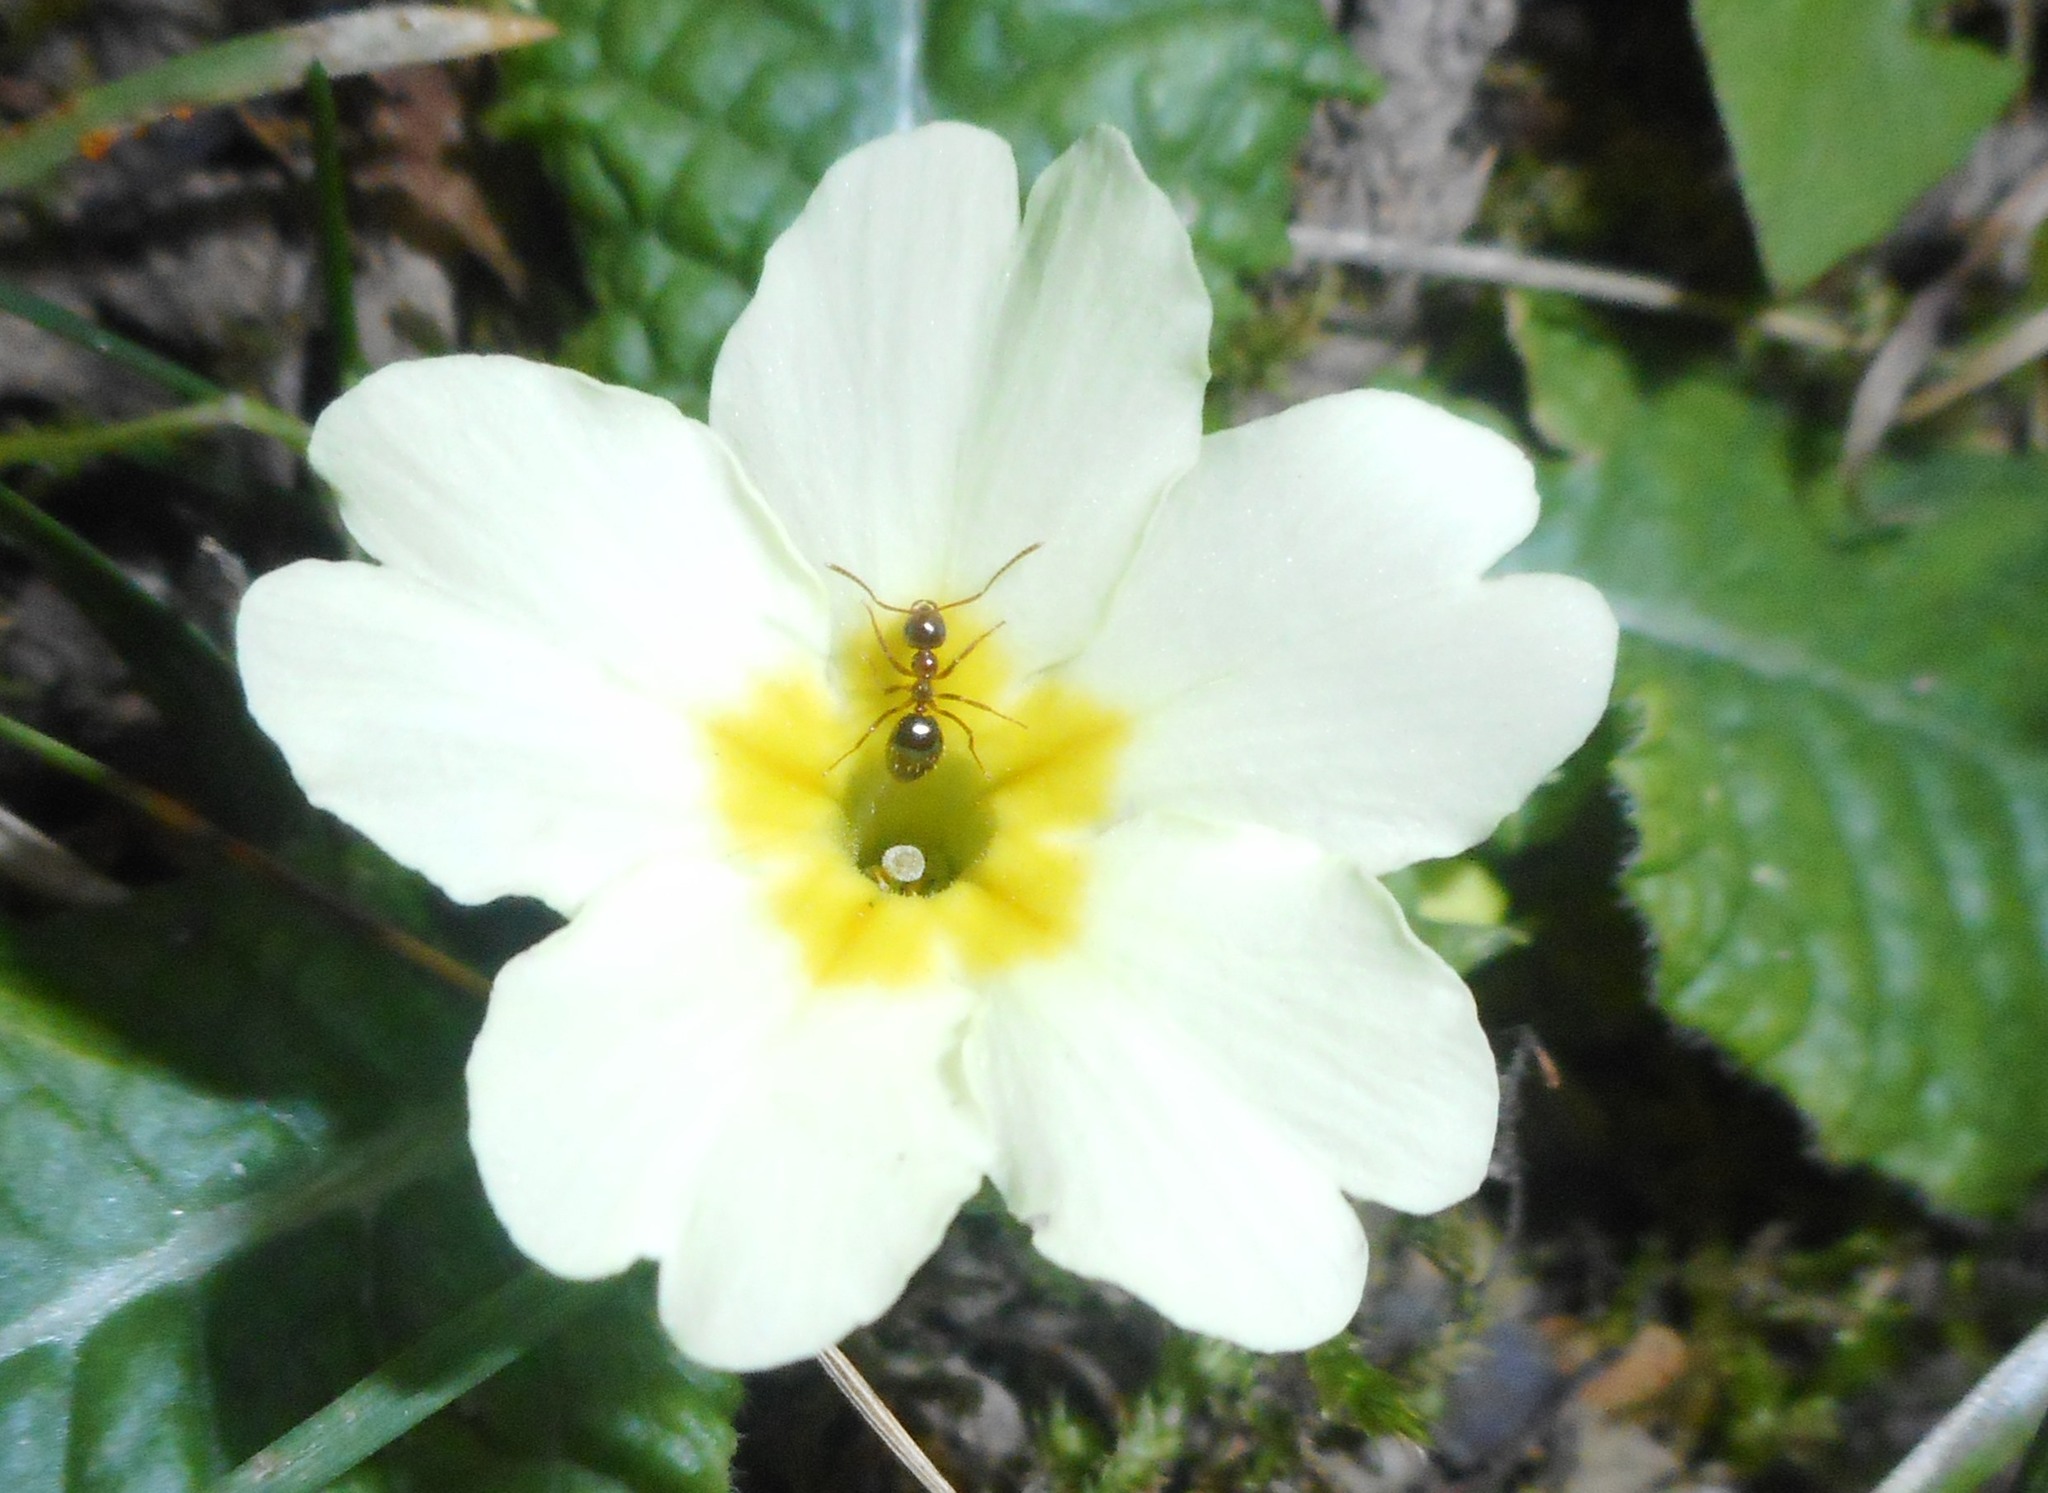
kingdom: Plantae
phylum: Tracheophyta
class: Magnoliopsida
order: Ericales
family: Primulaceae
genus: Primula
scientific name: Primula vulgaris
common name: Primrose
